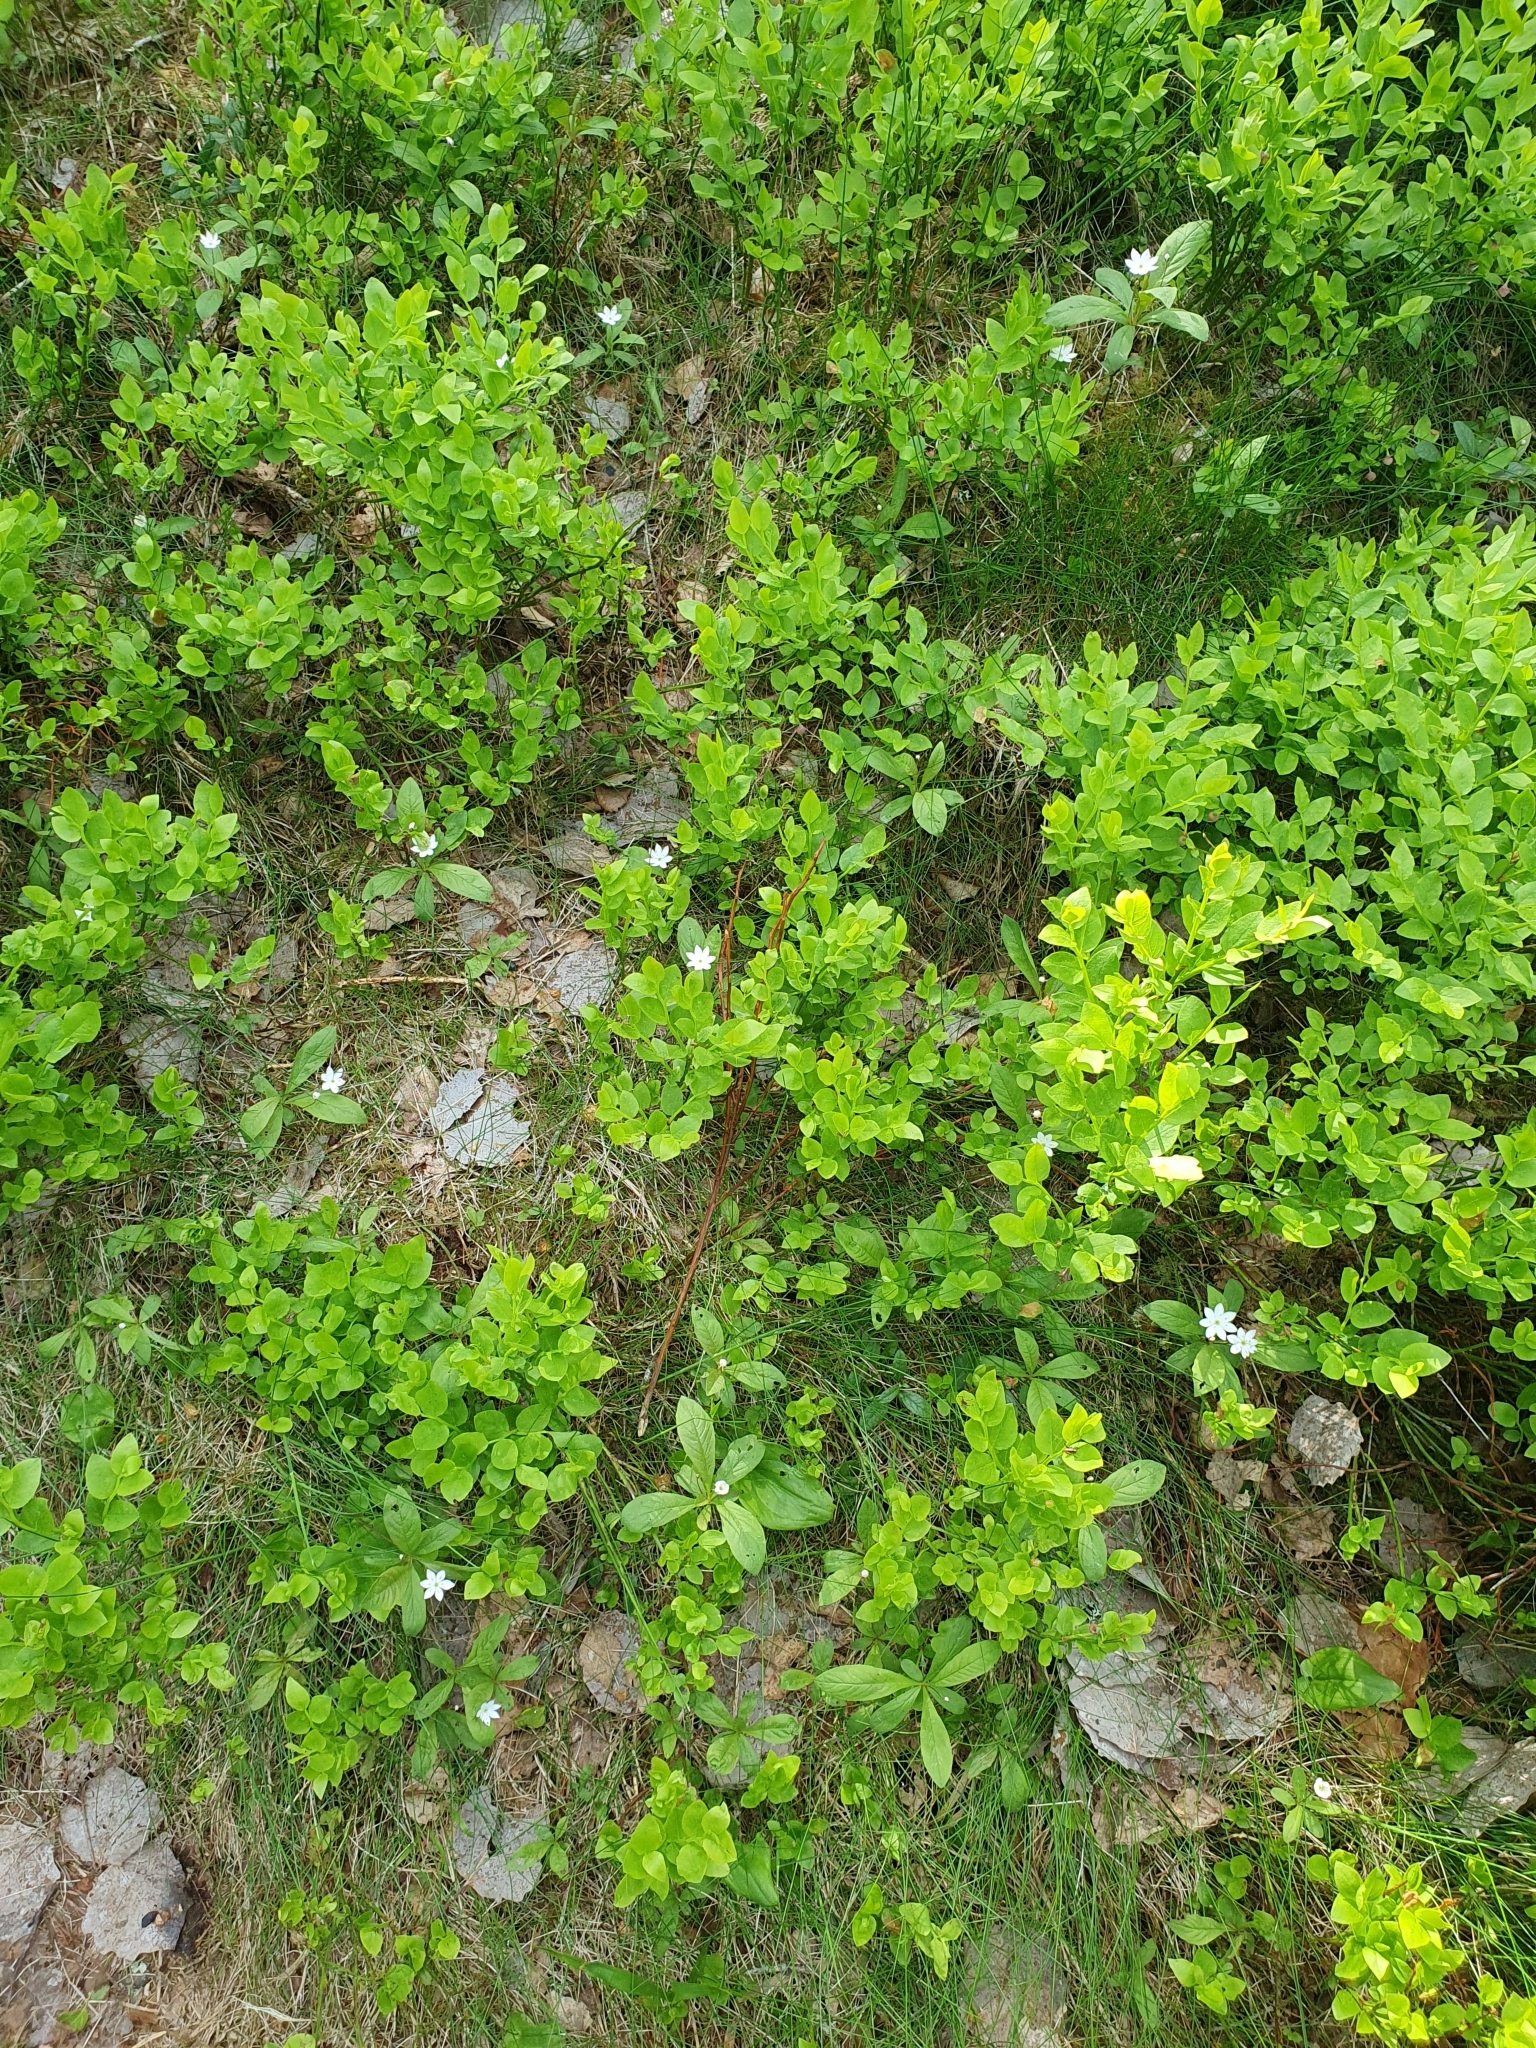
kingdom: Plantae
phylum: Tracheophyta
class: Magnoliopsida
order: Ericales
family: Primulaceae
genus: Lysimachia
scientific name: Lysimachia europaea
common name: Arctic starflower
